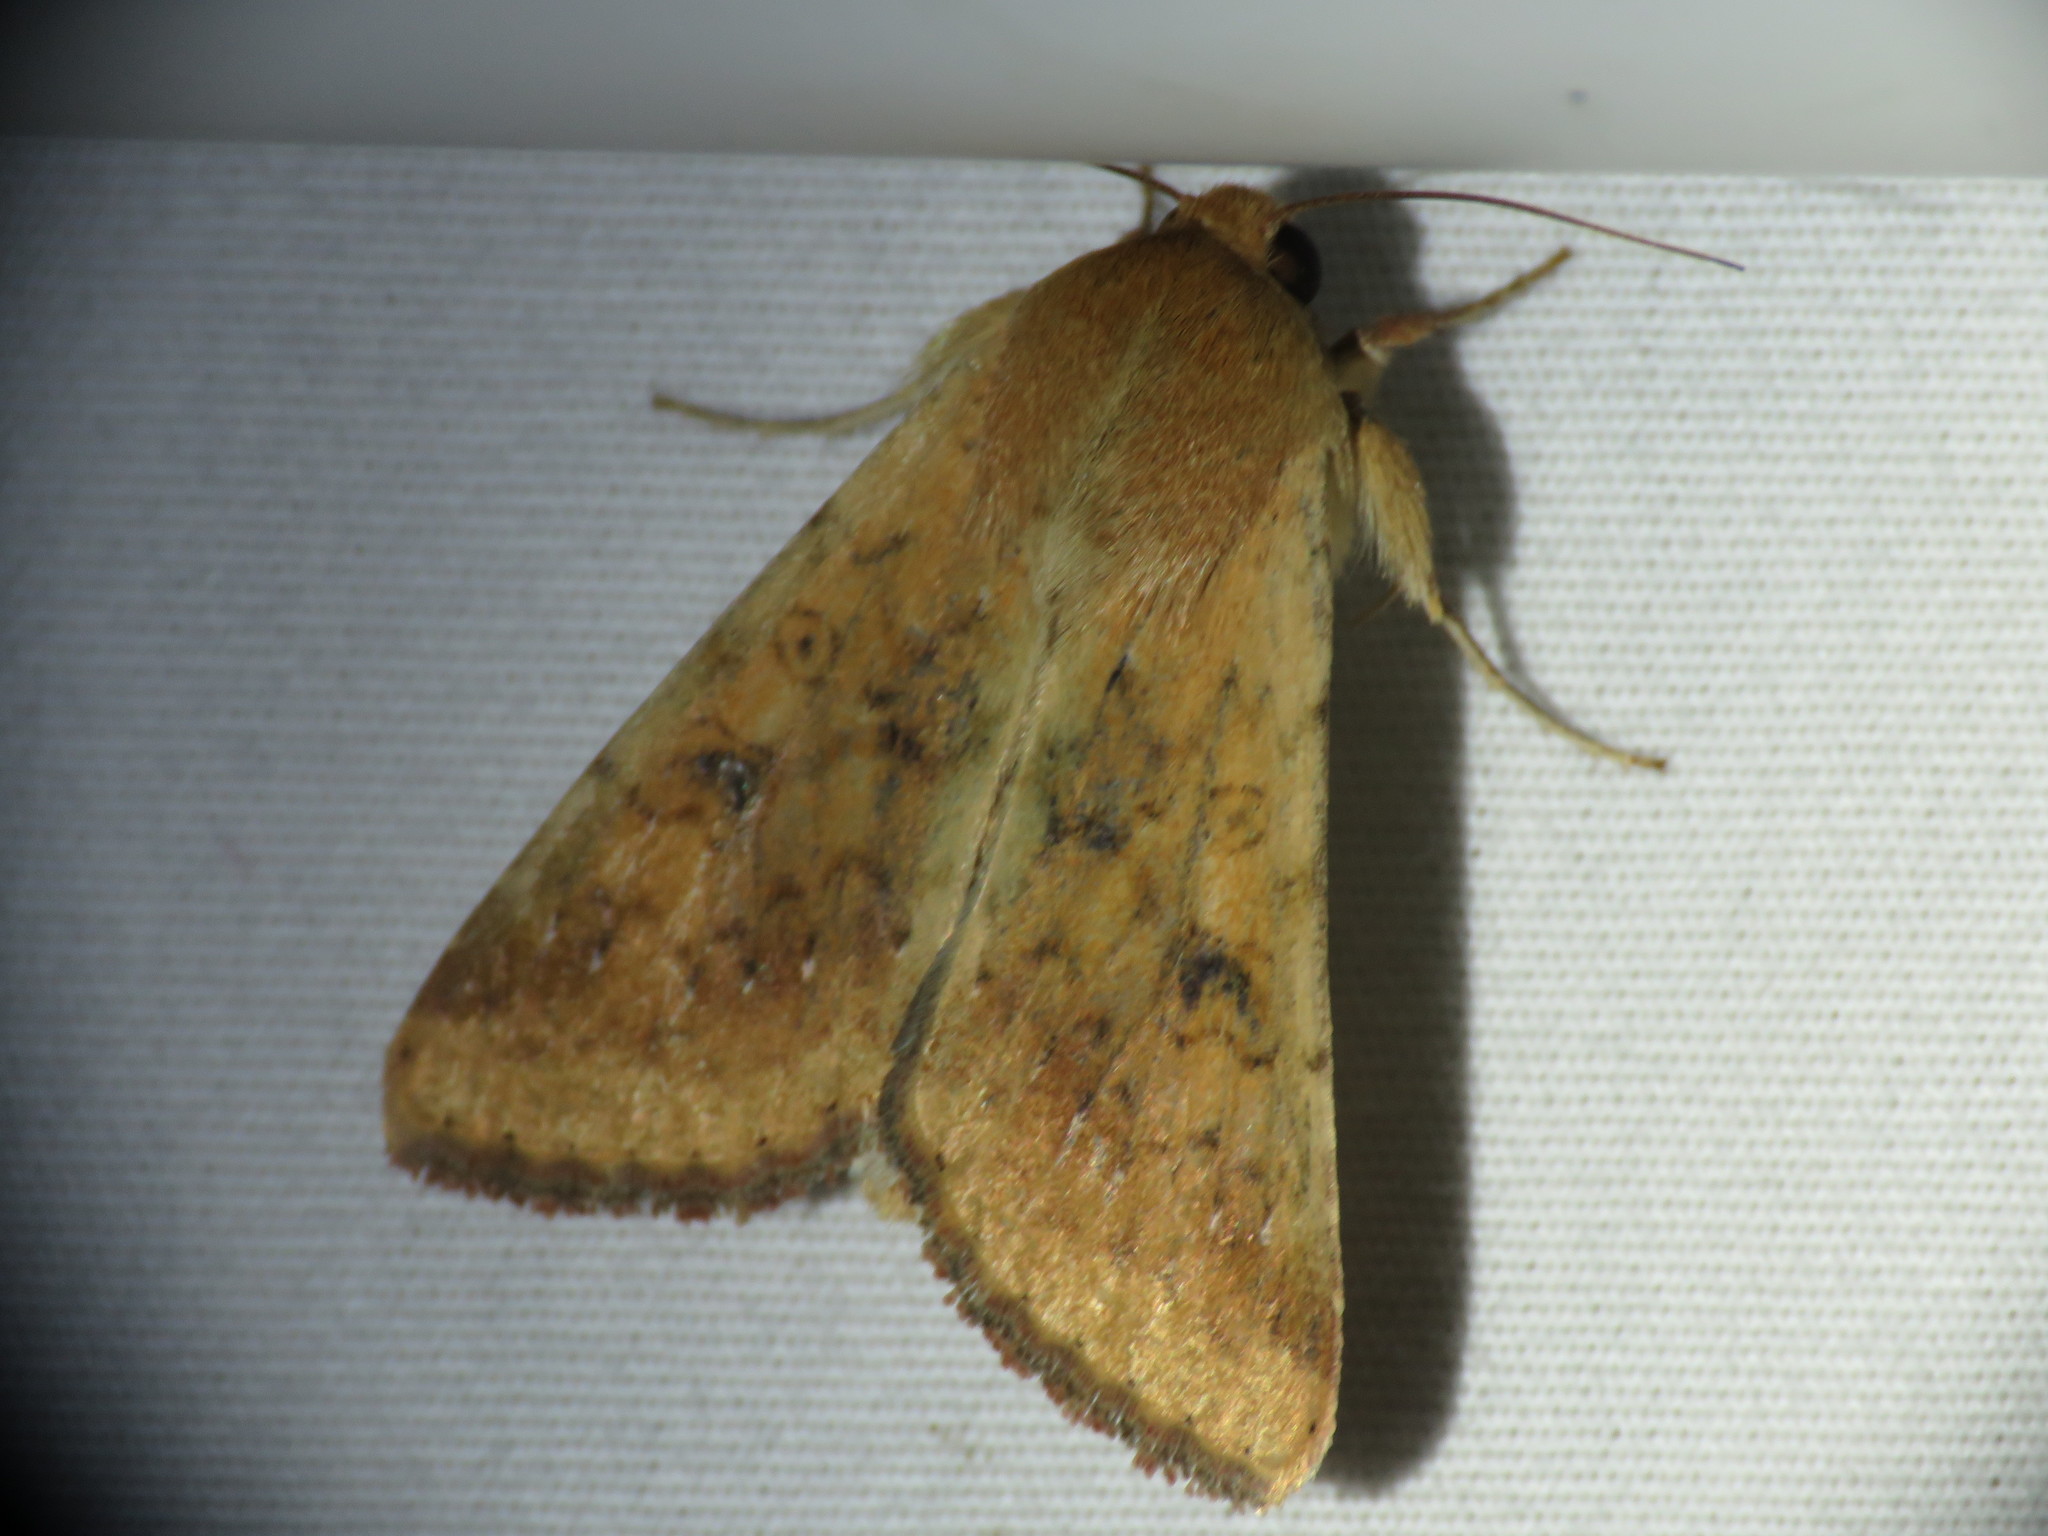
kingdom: Animalia
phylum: Arthropoda
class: Insecta
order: Lepidoptera
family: Noctuidae
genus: Helicoverpa
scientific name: Helicoverpa zea
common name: Bollworm
